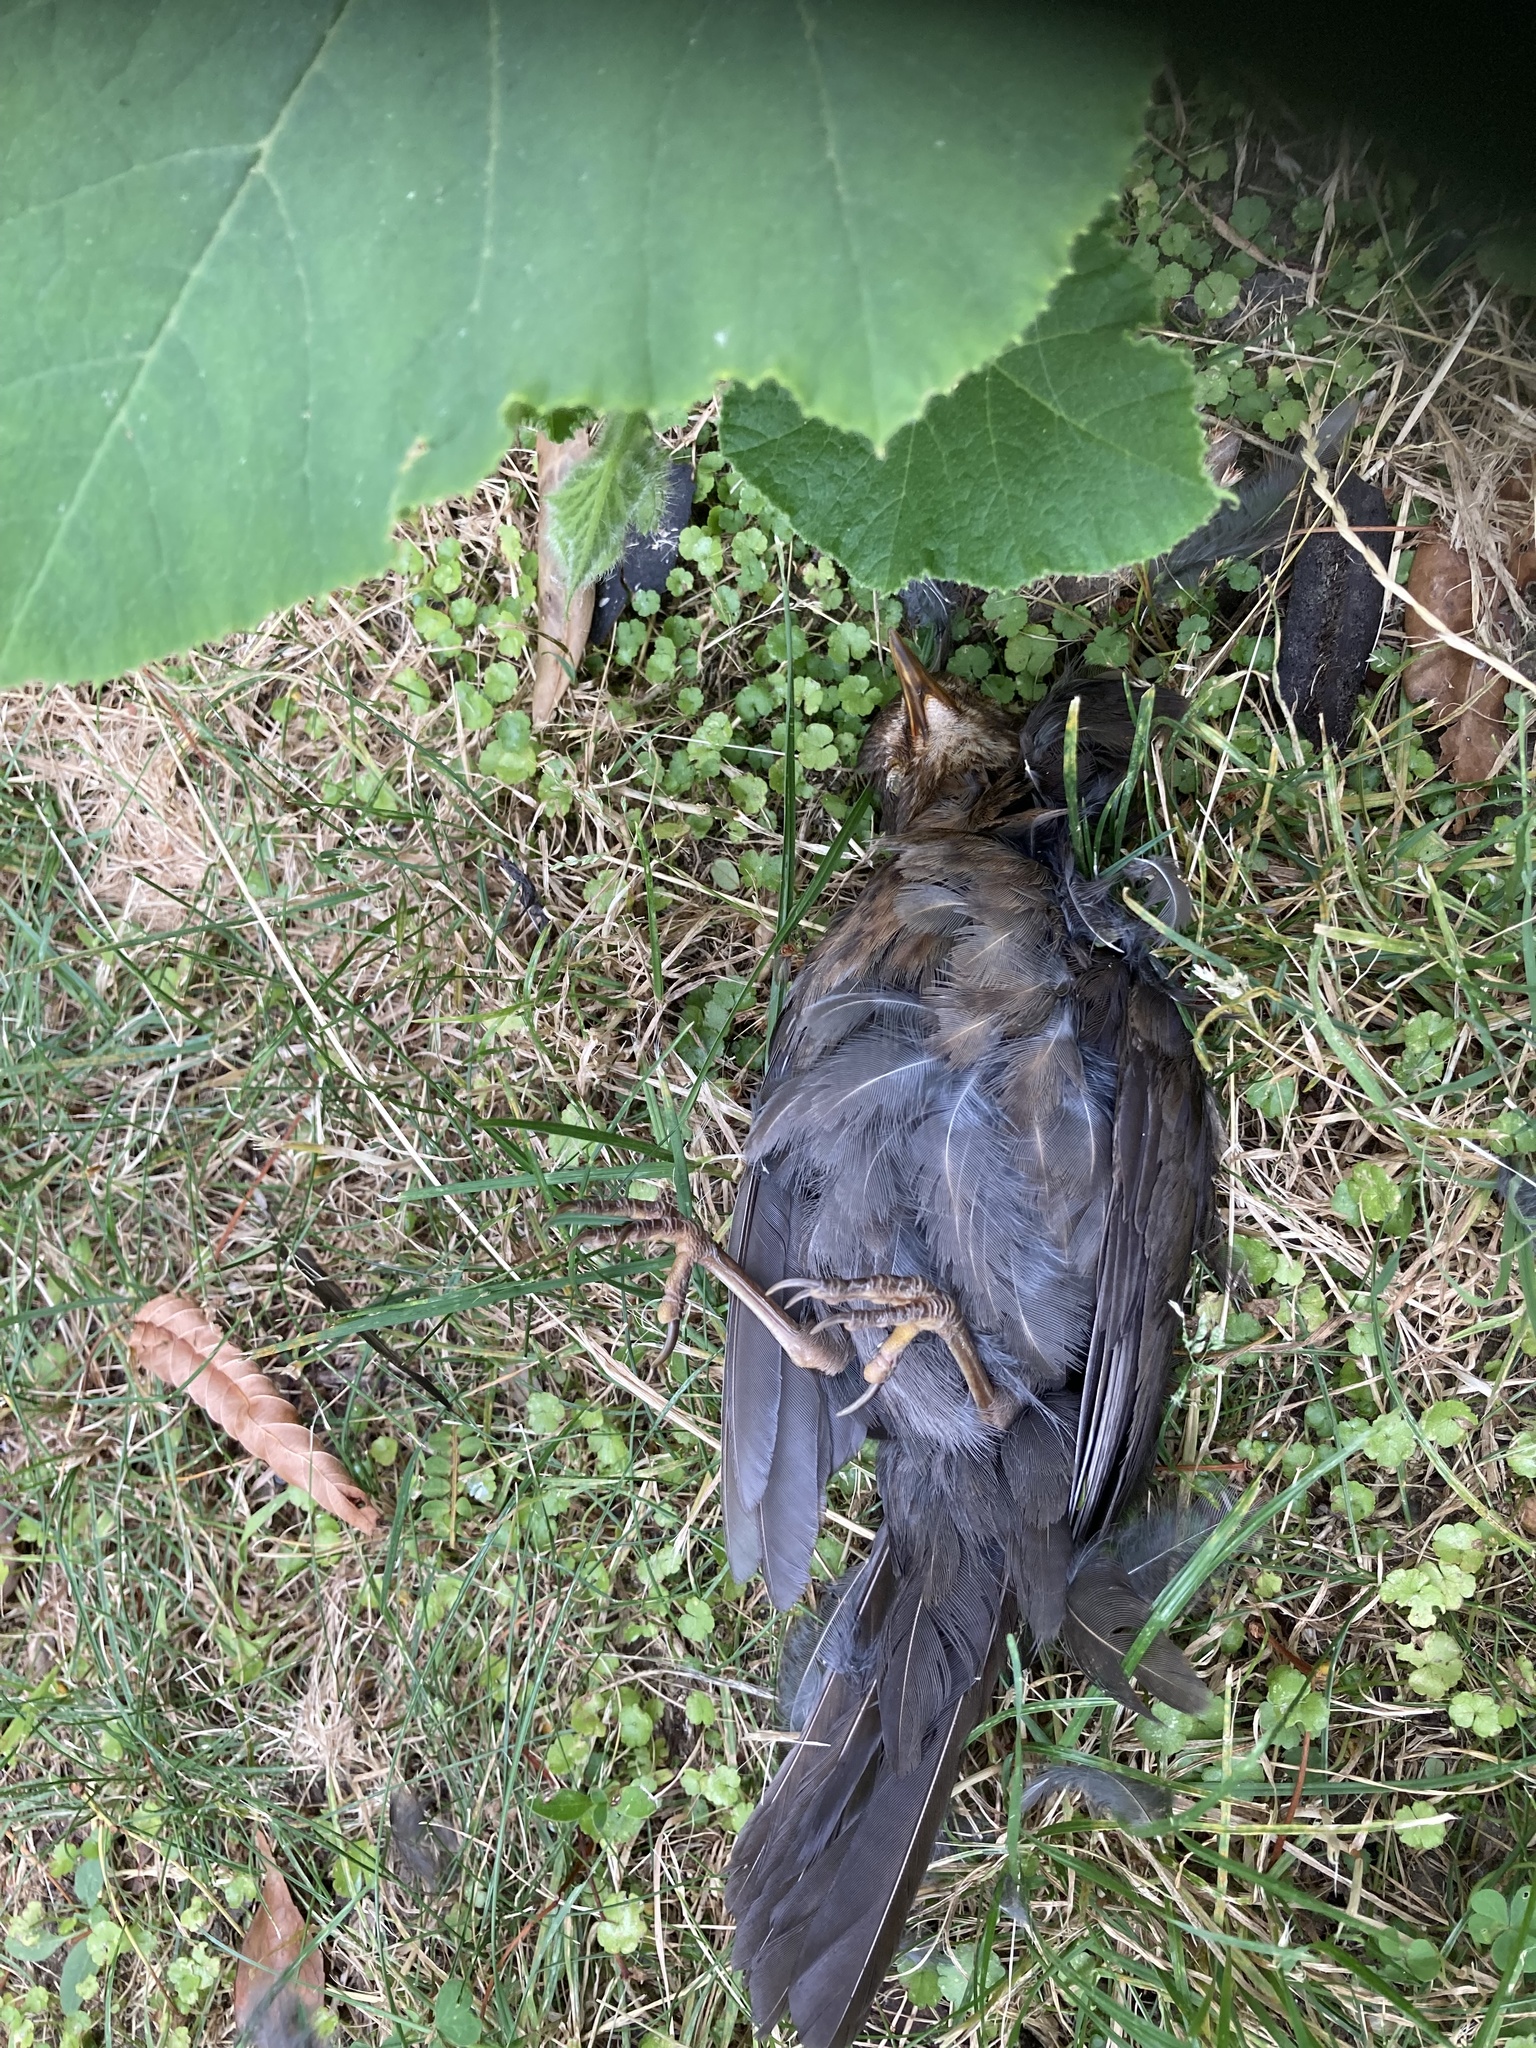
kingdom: Animalia
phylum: Chordata
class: Aves
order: Passeriformes
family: Turdidae
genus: Turdus
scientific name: Turdus merula
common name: Common blackbird
